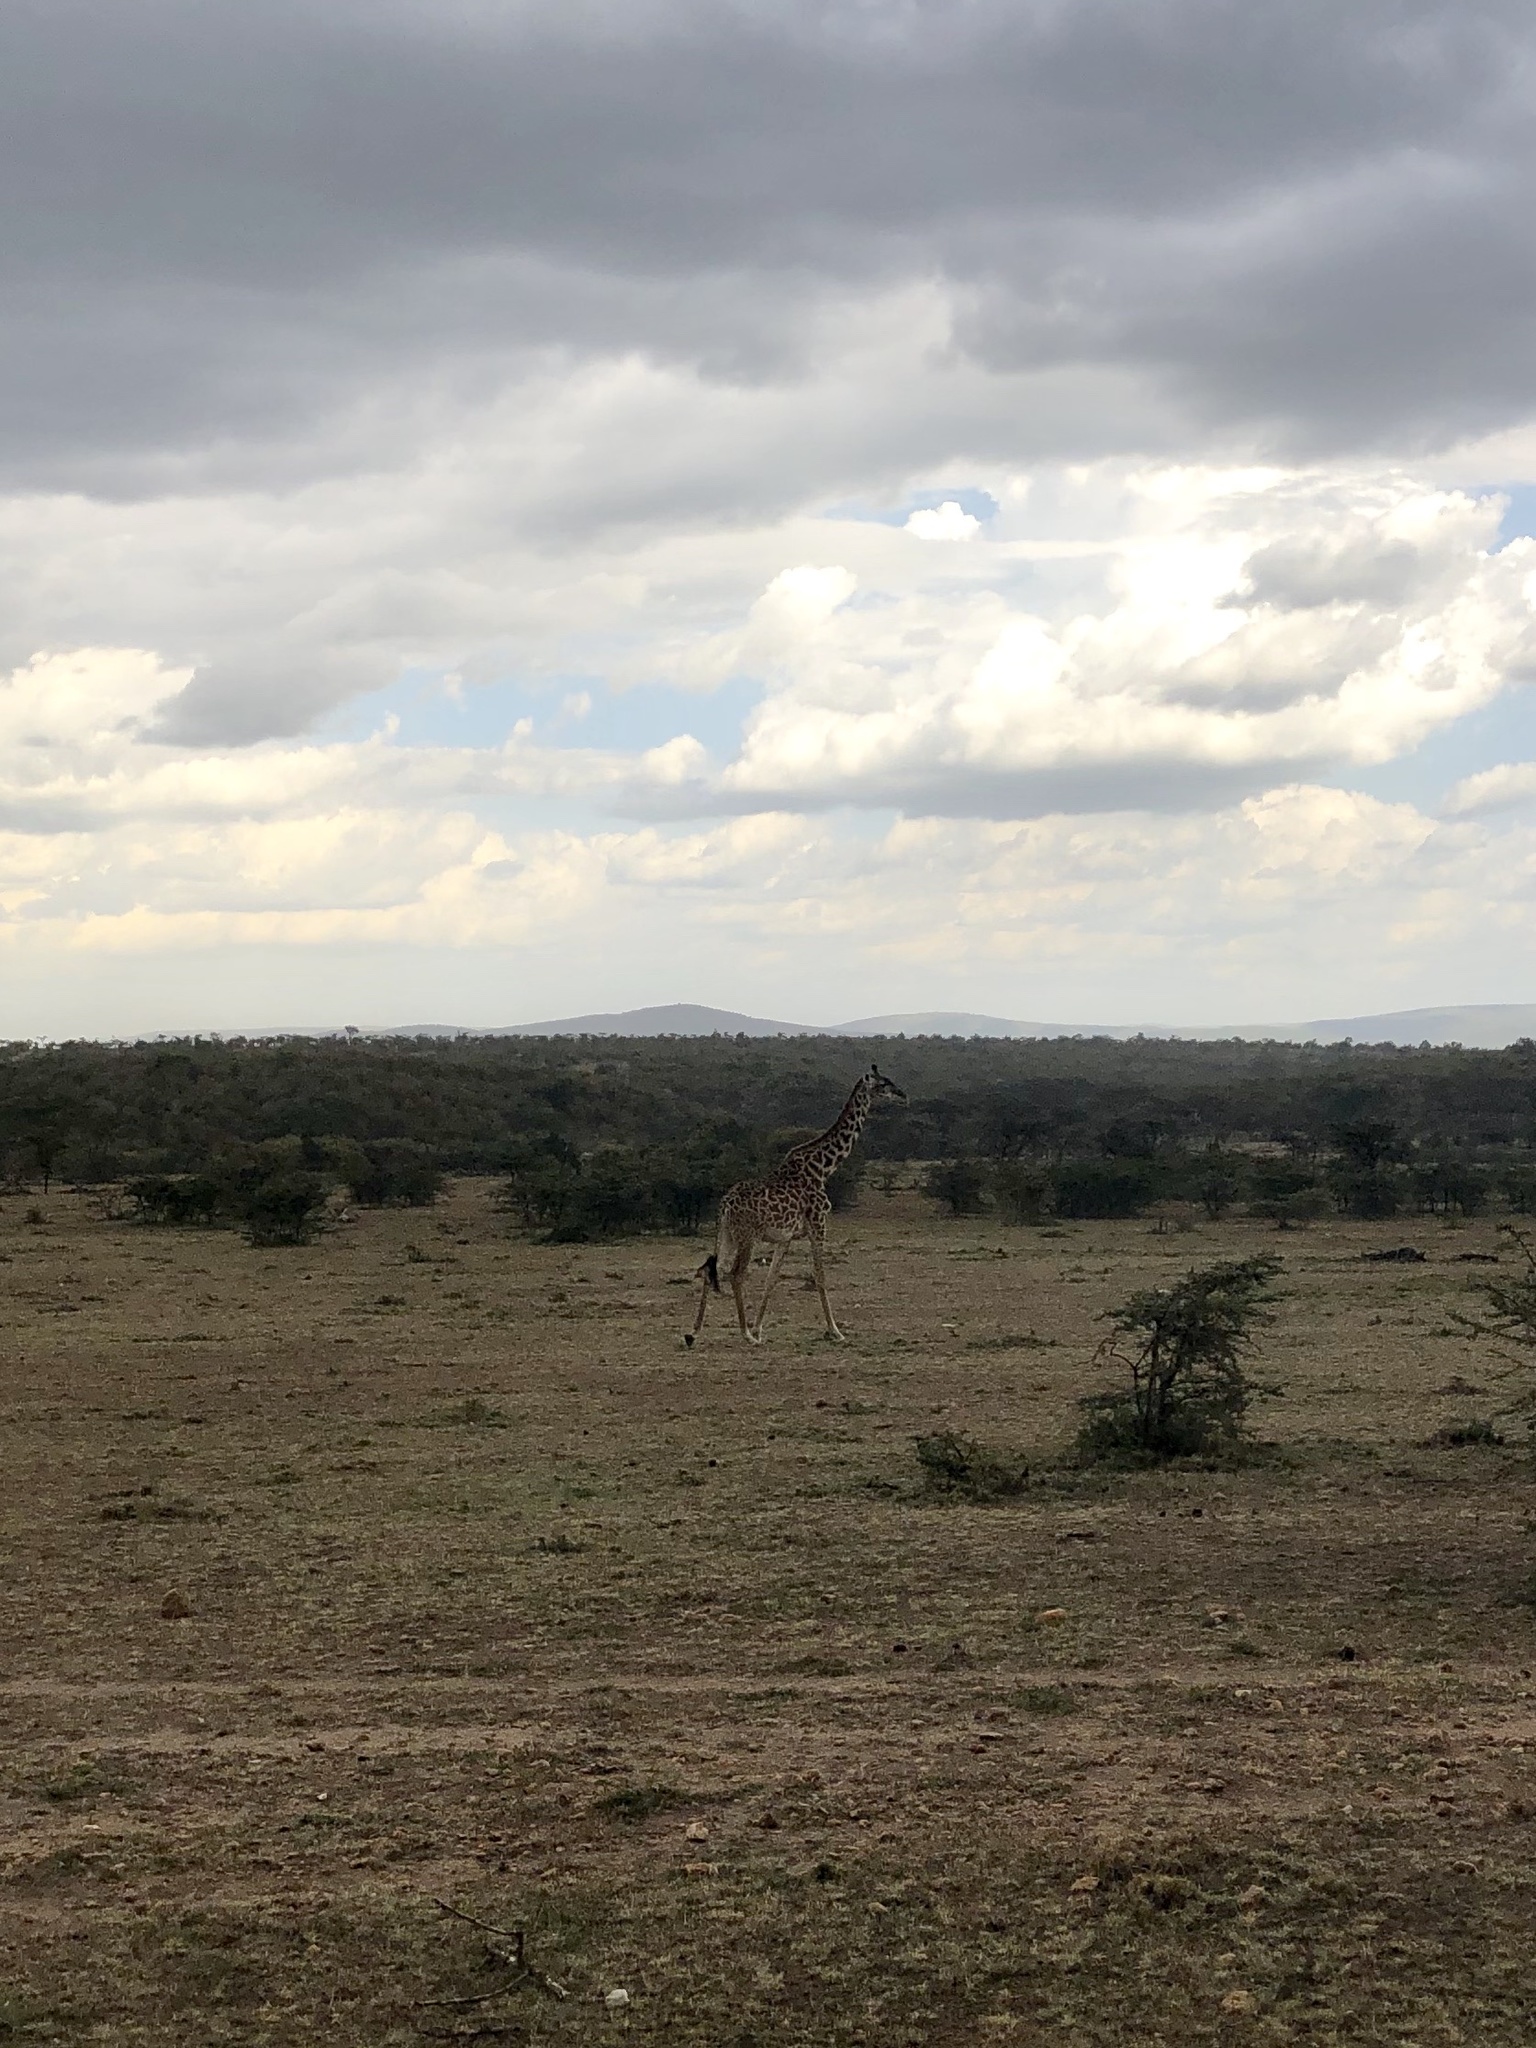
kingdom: Animalia
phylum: Chordata
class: Mammalia
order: Artiodactyla
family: Giraffidae
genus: Giraffa
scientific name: Giraffa tippelskirchi
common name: Masai giraffe
